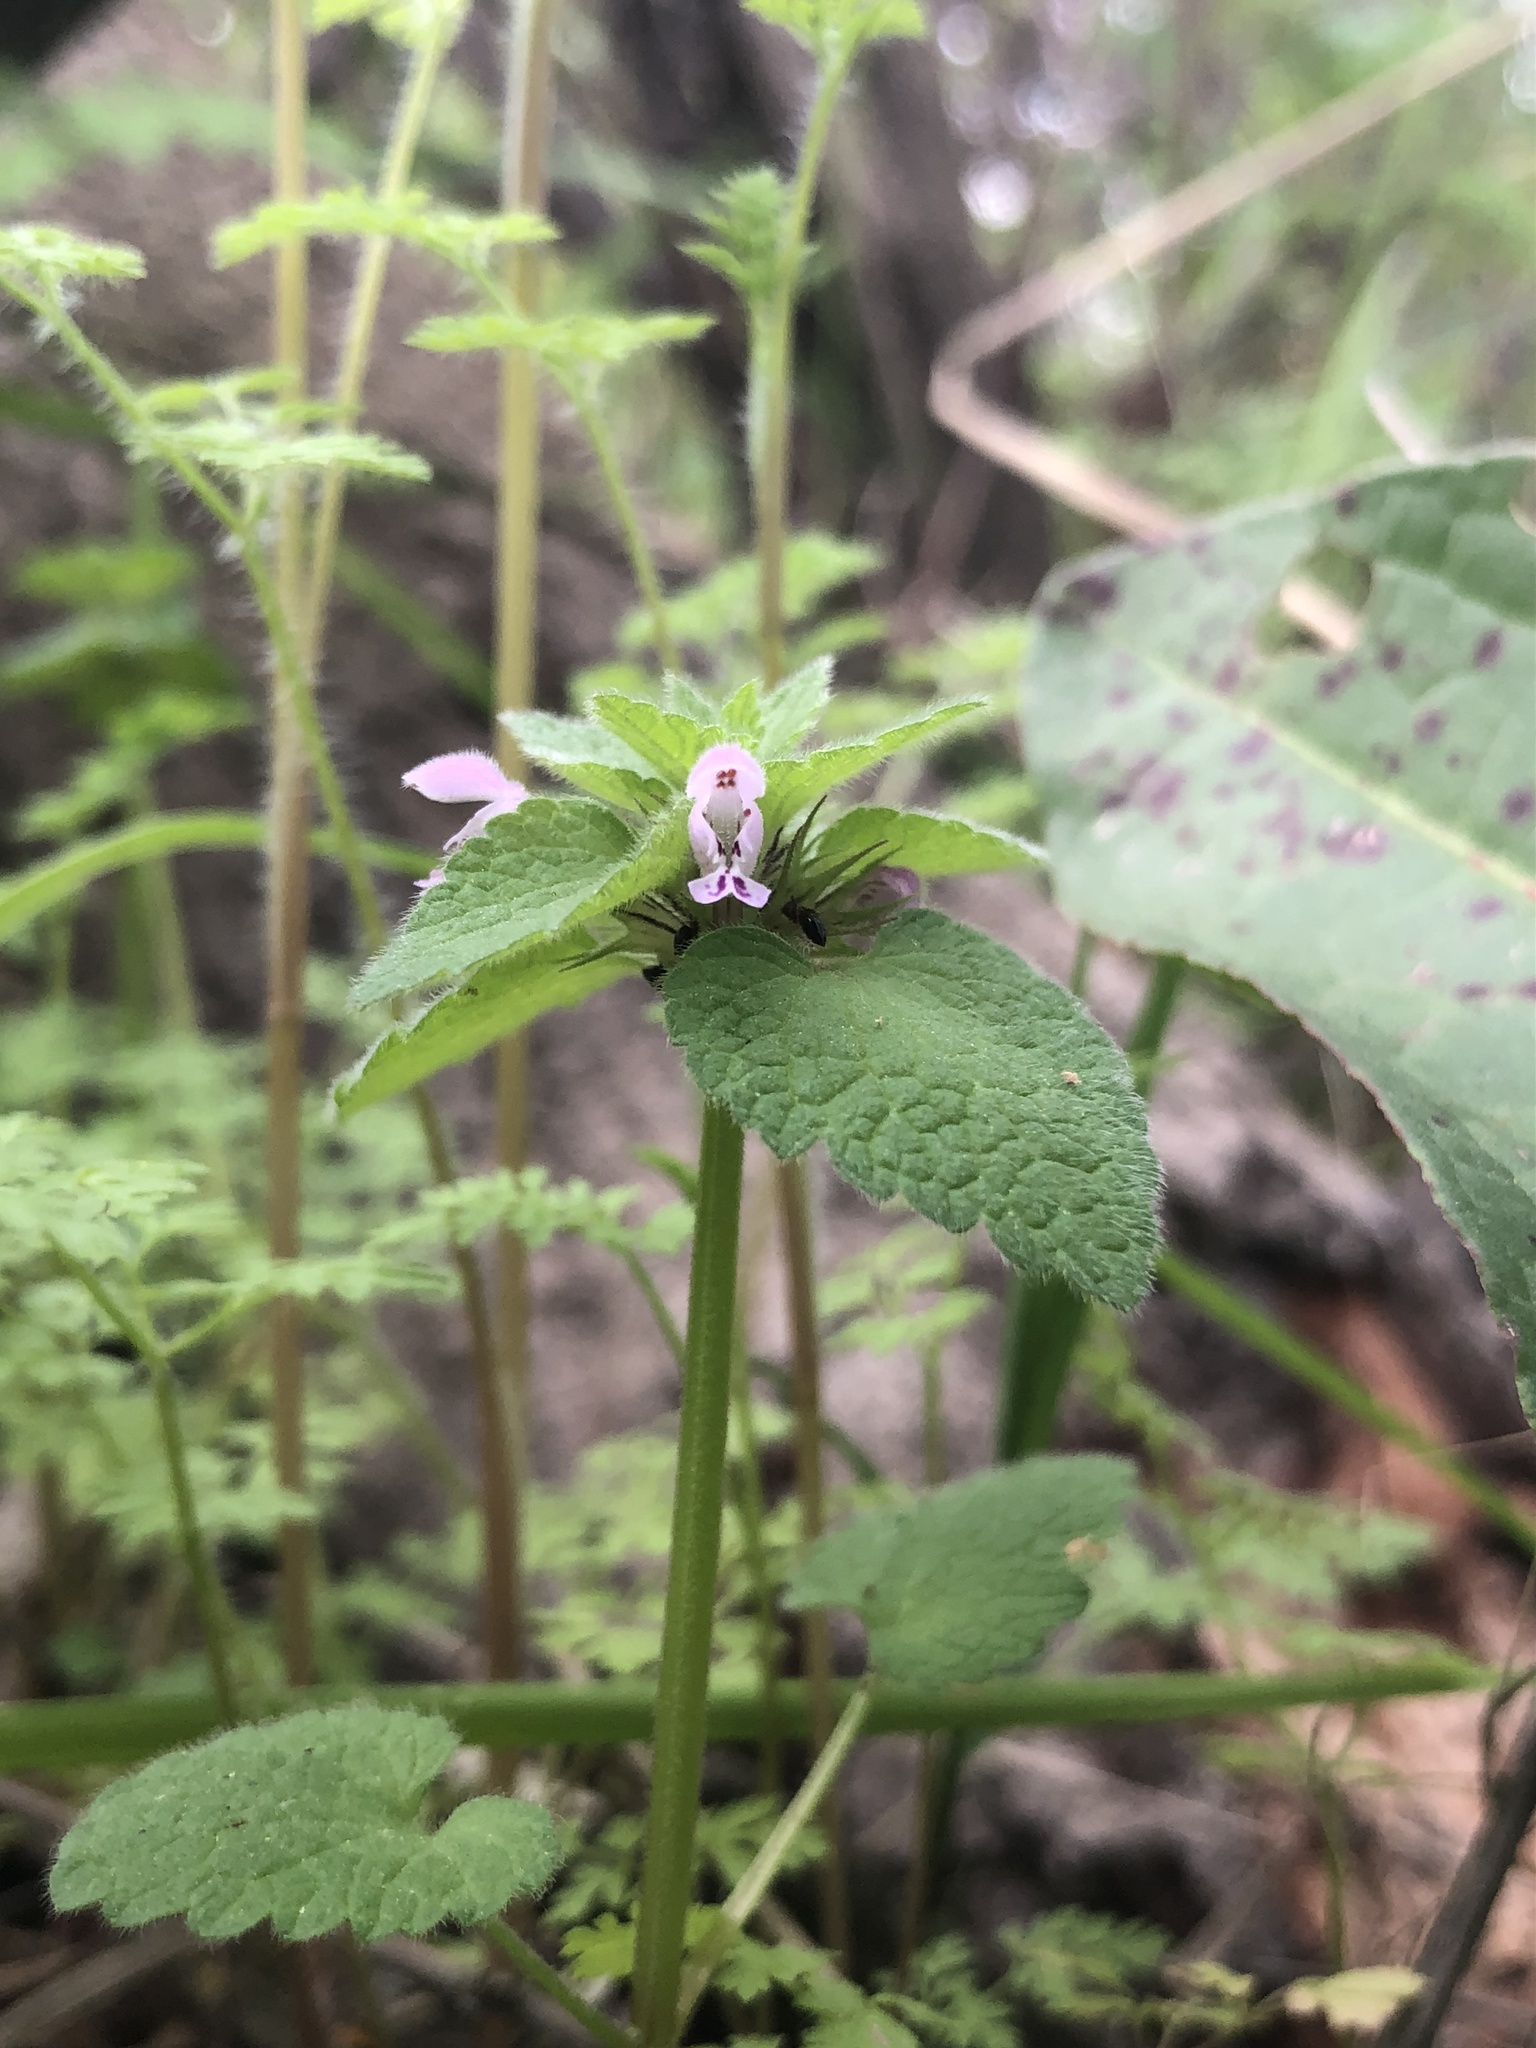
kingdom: Plantae
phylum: Tracheophyta
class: Magnoliopsida
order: Lamiales
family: Lamiaceae
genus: Lamium
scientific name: Lamium purpureum
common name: Red dead-nettle
